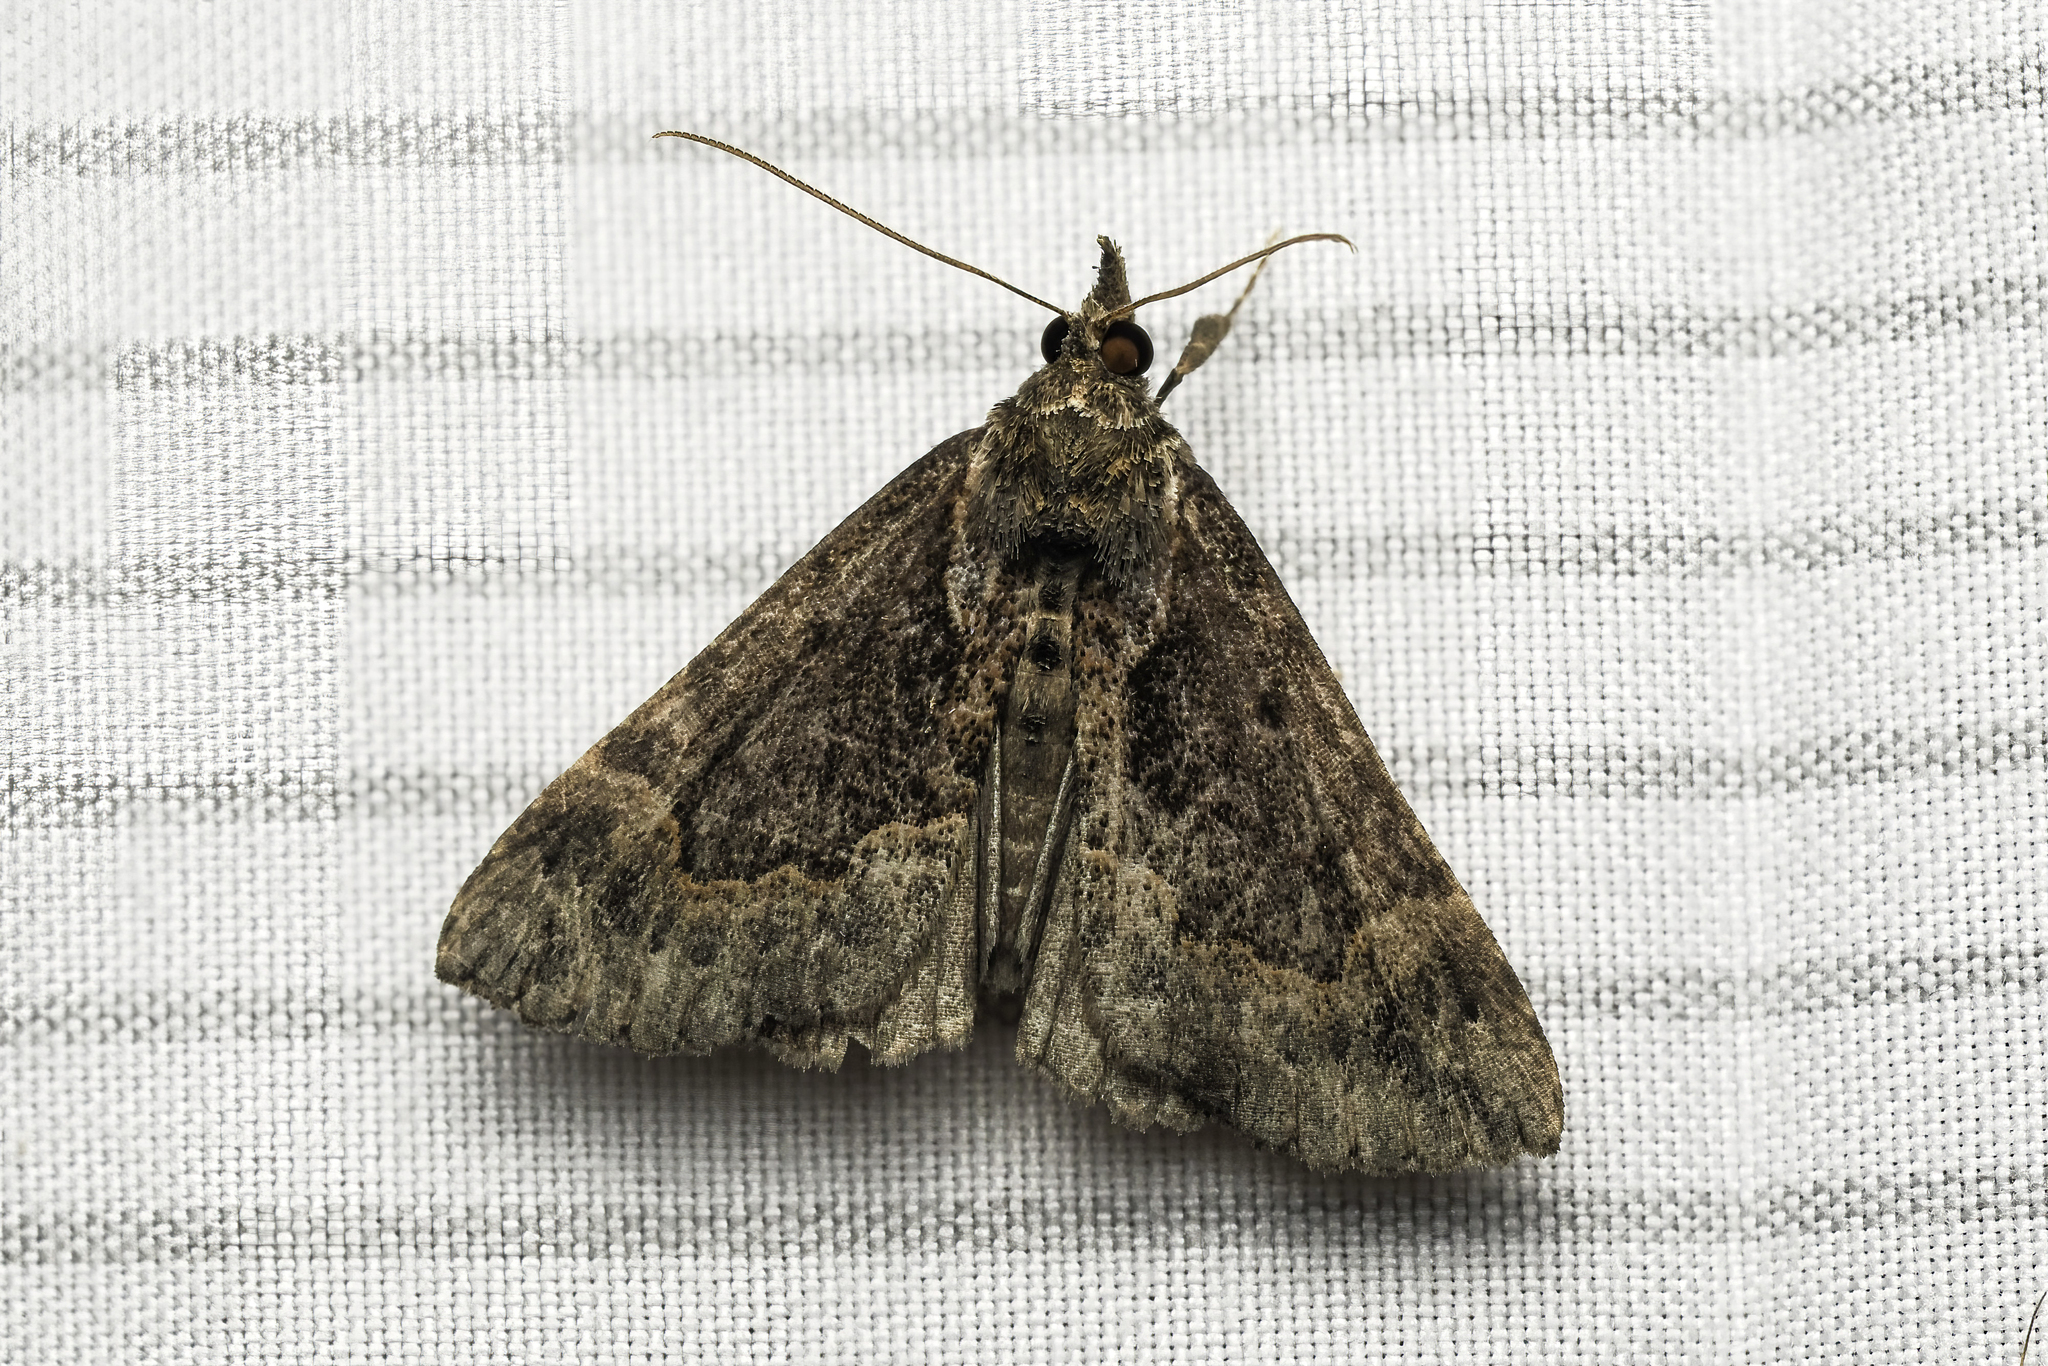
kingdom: Animalia
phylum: Arthropoda
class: Insecta
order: Lepidoptera
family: Erebidae
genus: Hypena
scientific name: Hypena baltimoralis
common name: Baltimore snout
